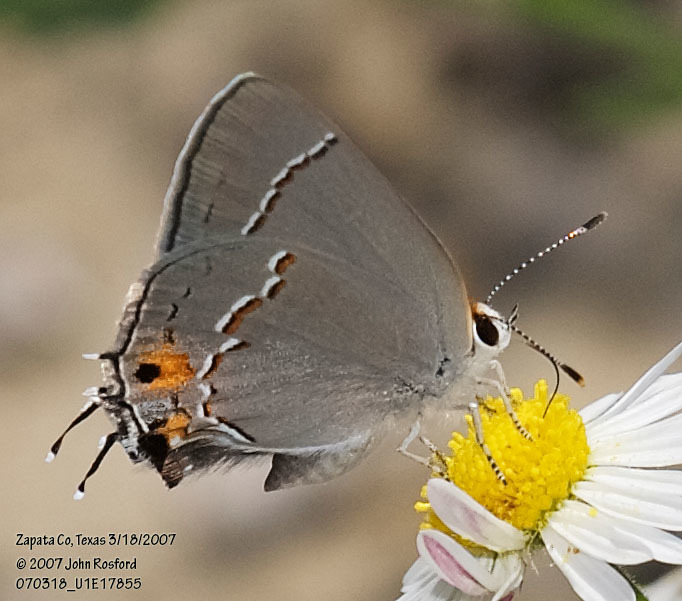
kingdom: Animalia
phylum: Arthropoda
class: Insecta
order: Lepidoptera
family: Lycaenidae
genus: Strymon
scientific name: Strymon melinus
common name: Gray hairstreak
